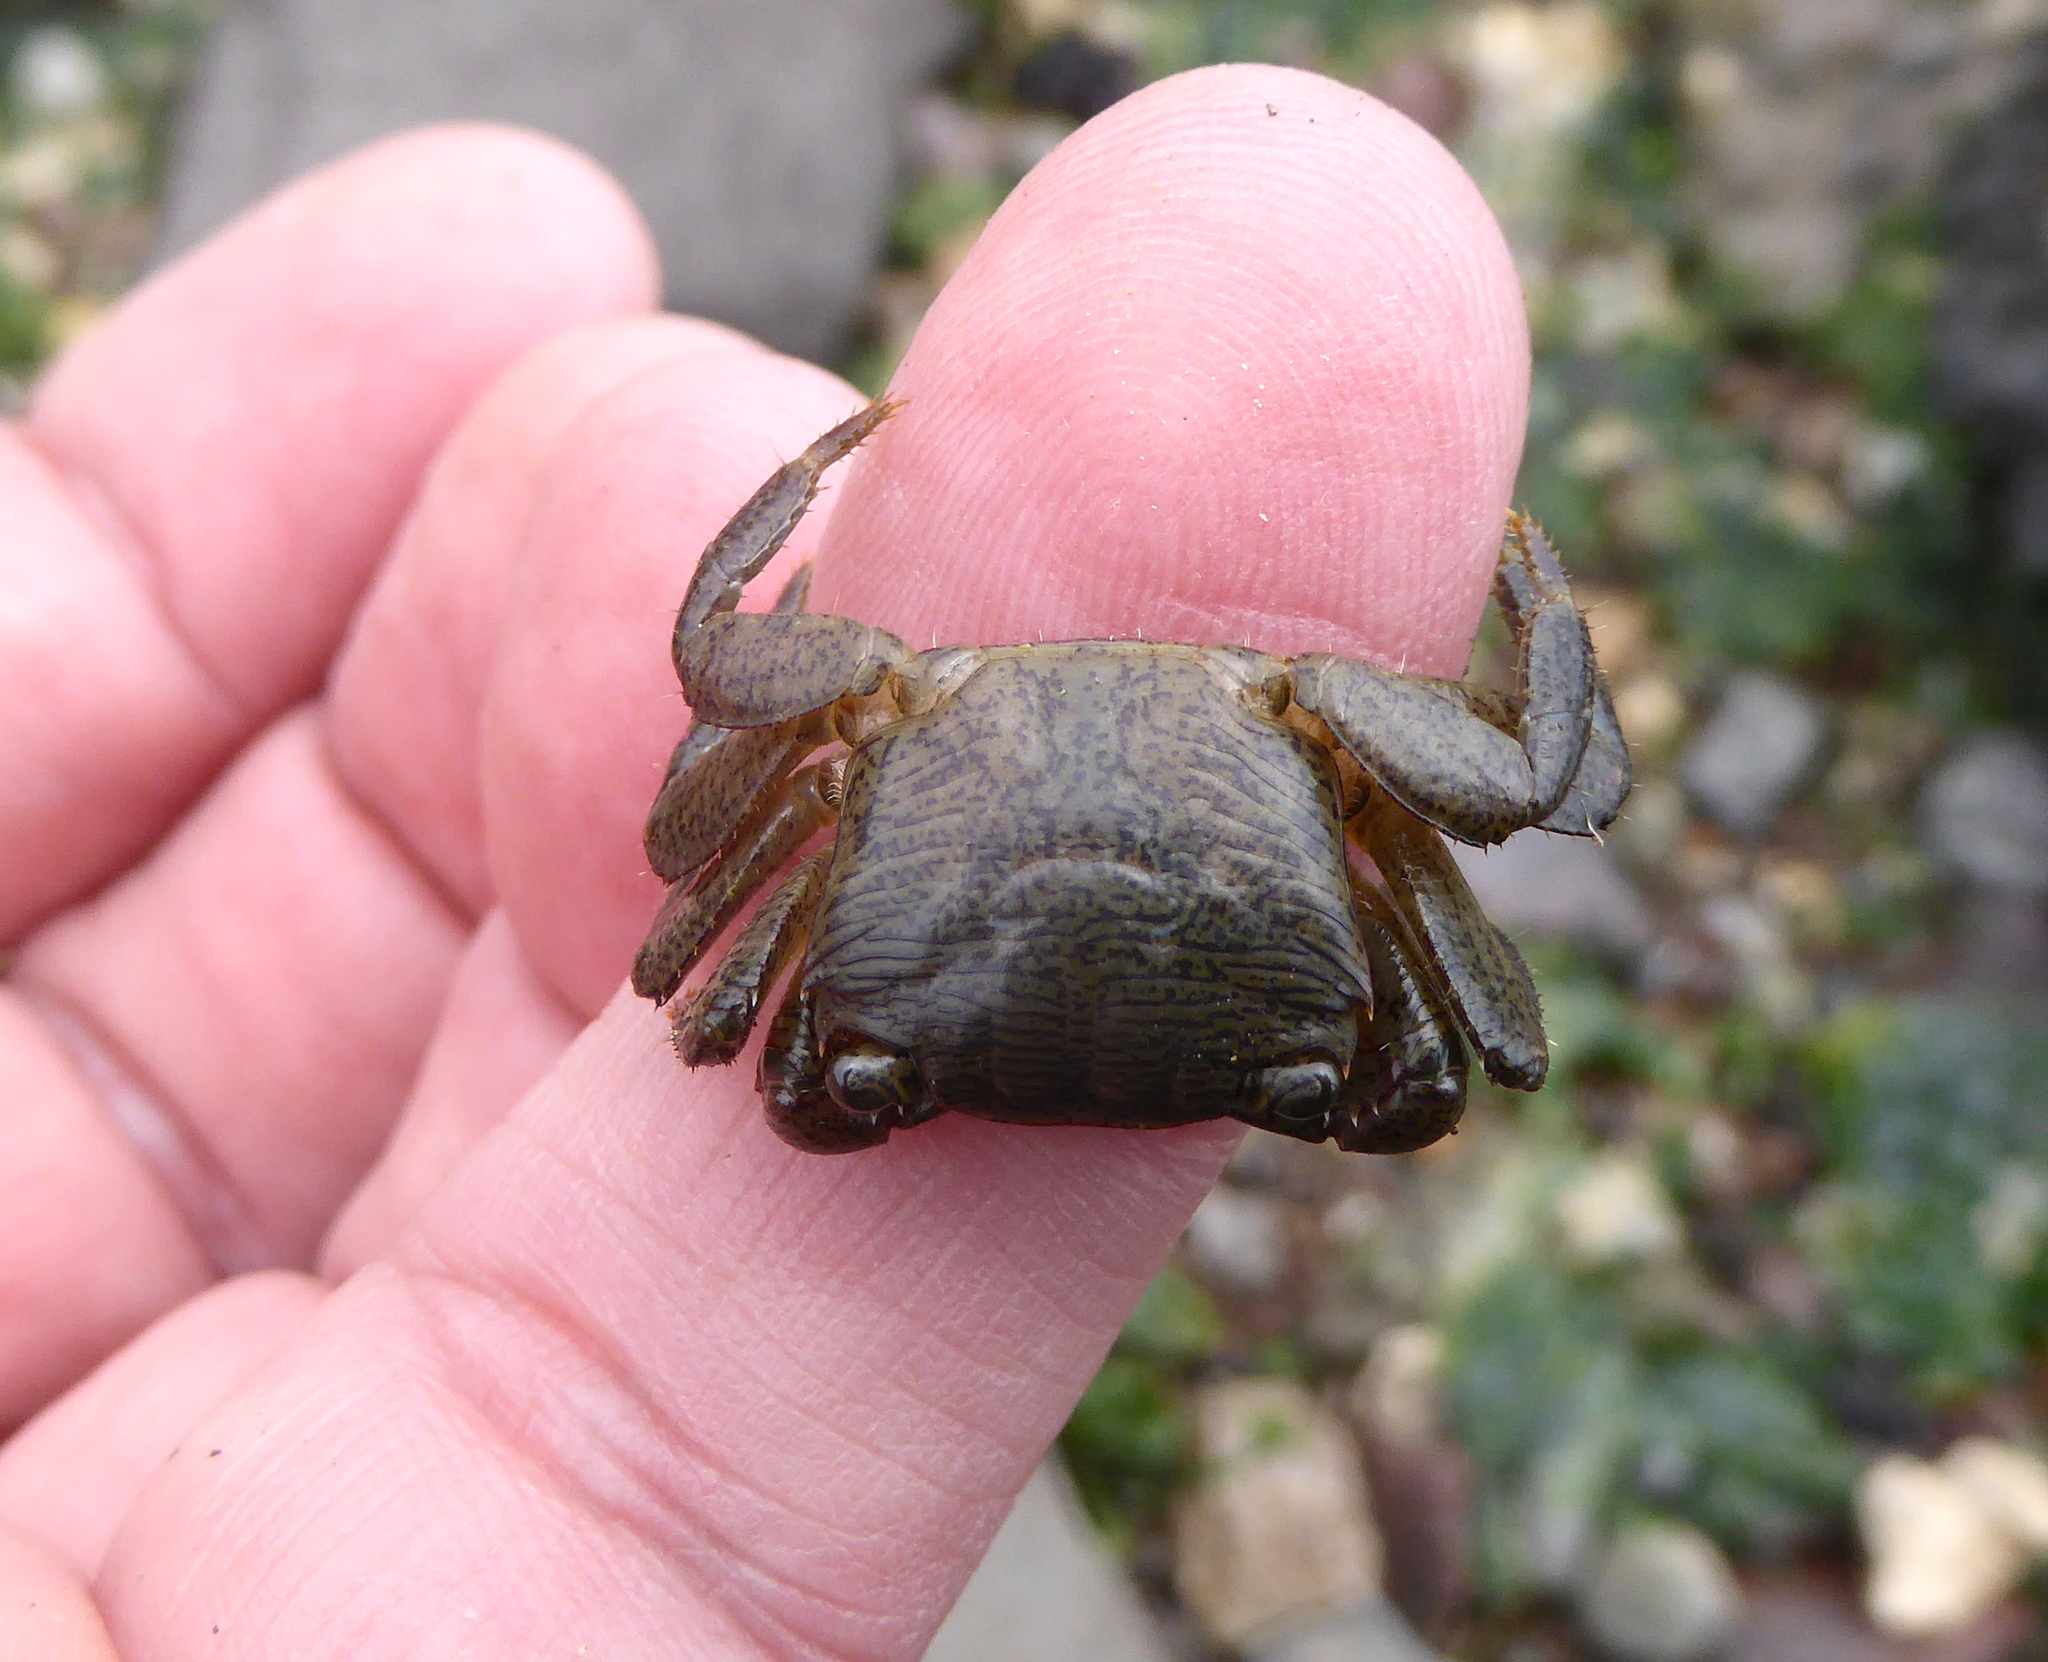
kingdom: Animalia
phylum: Arthropoda
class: Malacostraca
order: Decapoda
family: Grapsidae
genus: Pachygrapsus
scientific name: Pachygrapsus crassipes
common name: Striped shore crab
